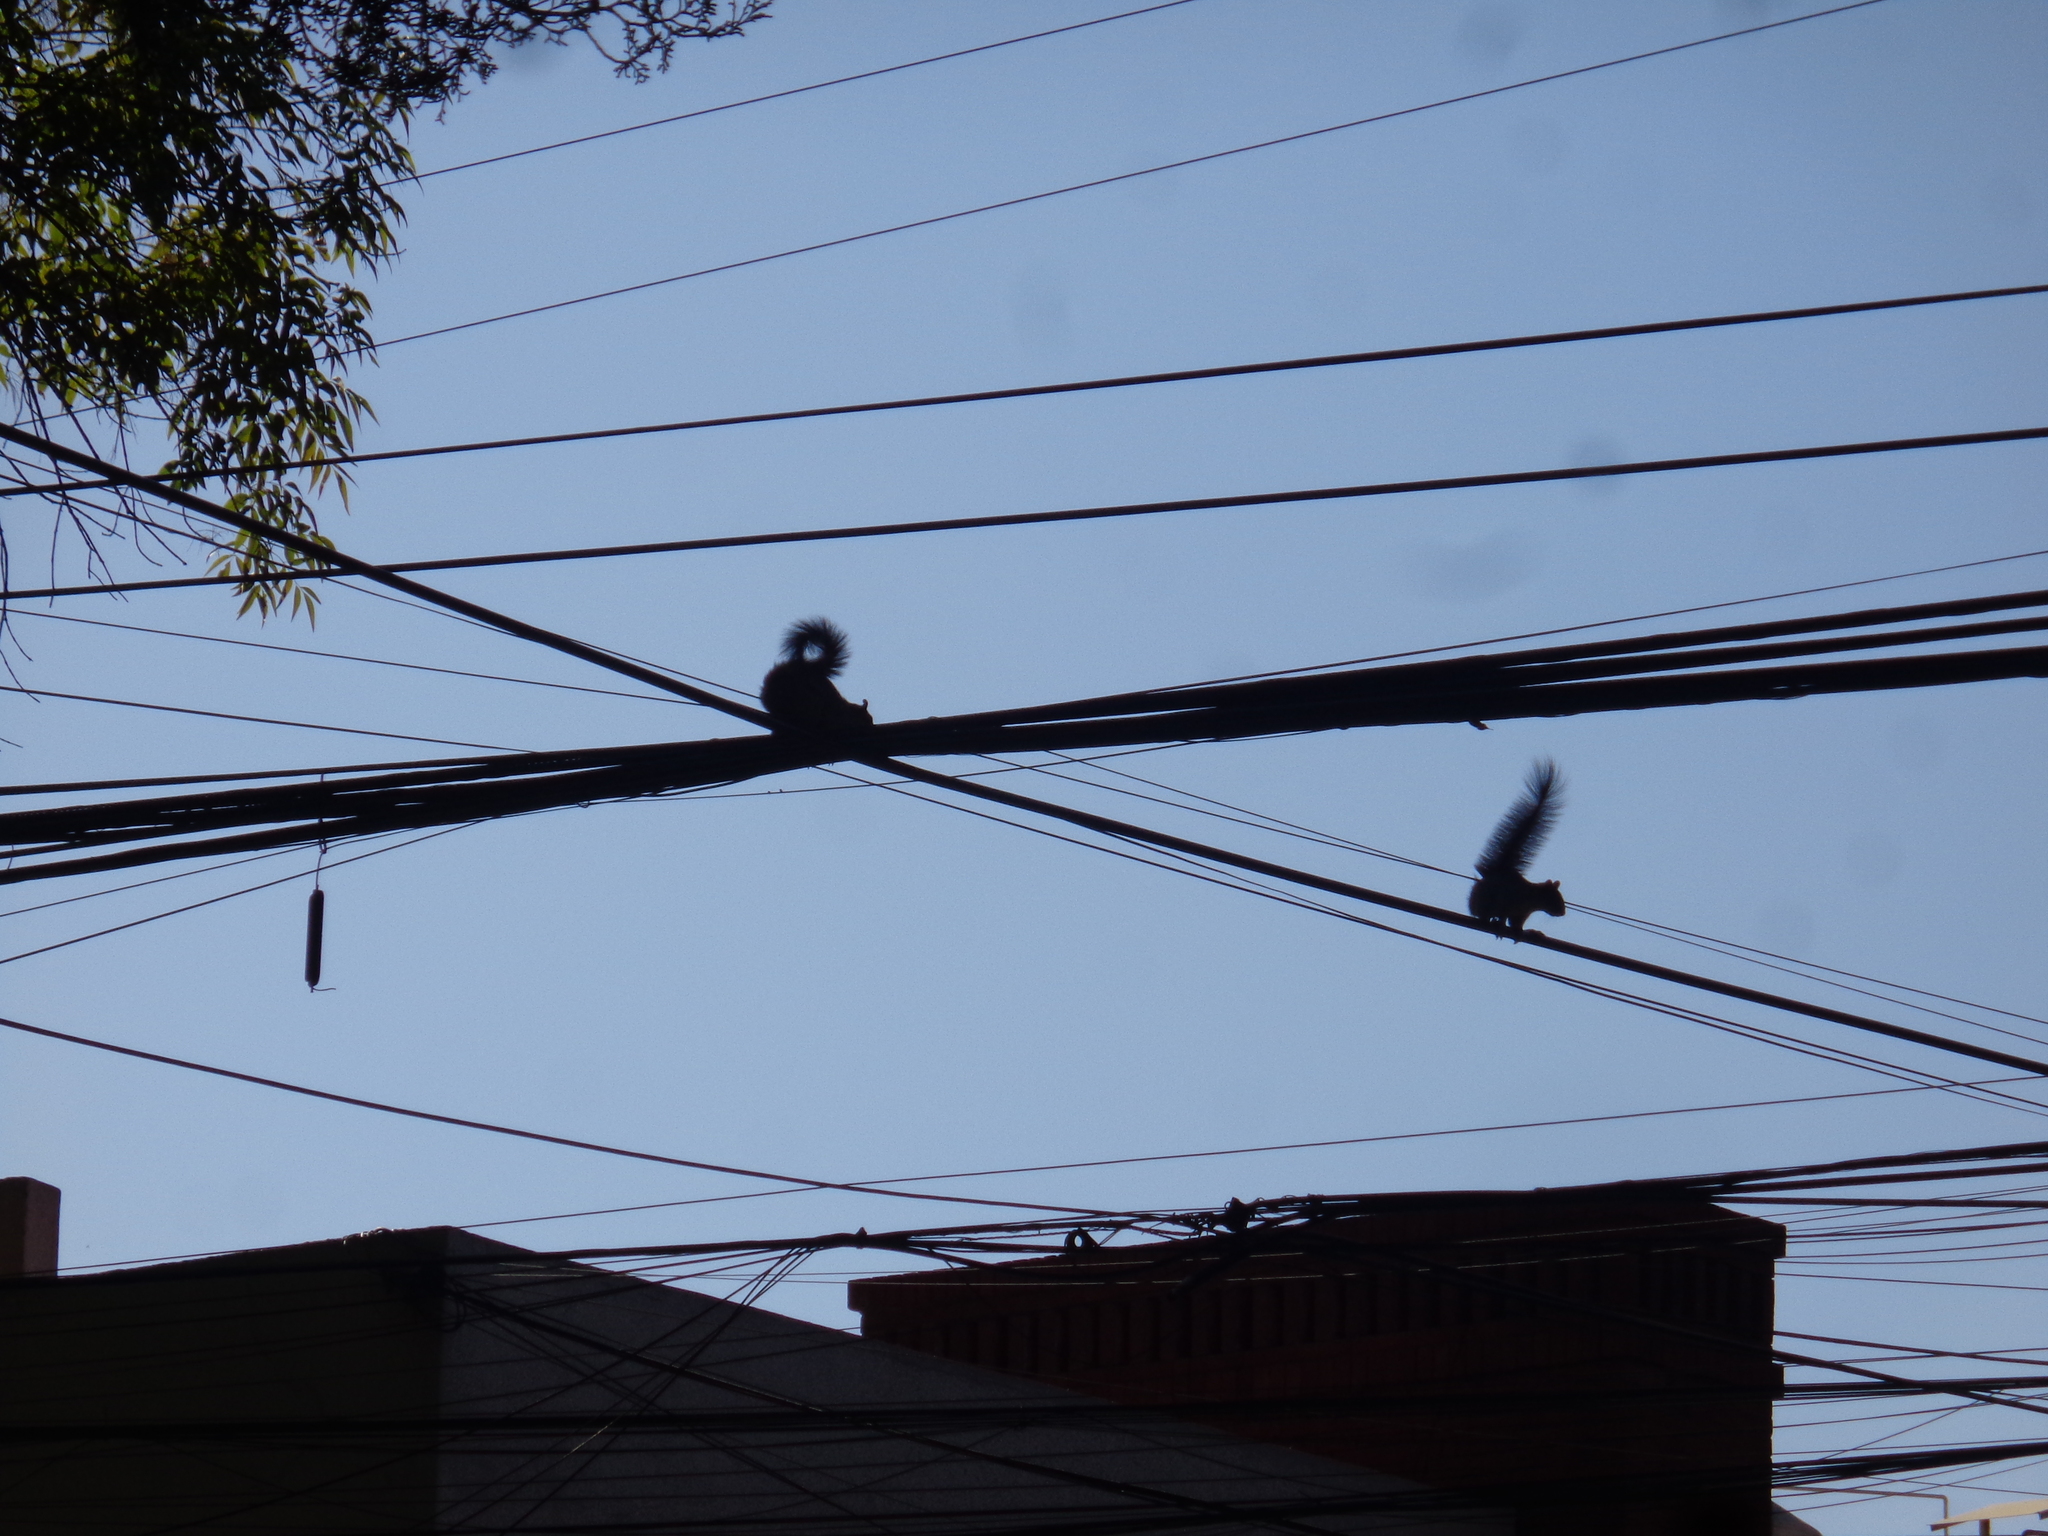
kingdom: Animalia
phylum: Chordata
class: Mammalia
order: Rodentia
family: Sciuridae
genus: Sciurus
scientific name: Sciurus aureogaster
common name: Red-bellied squirrel
